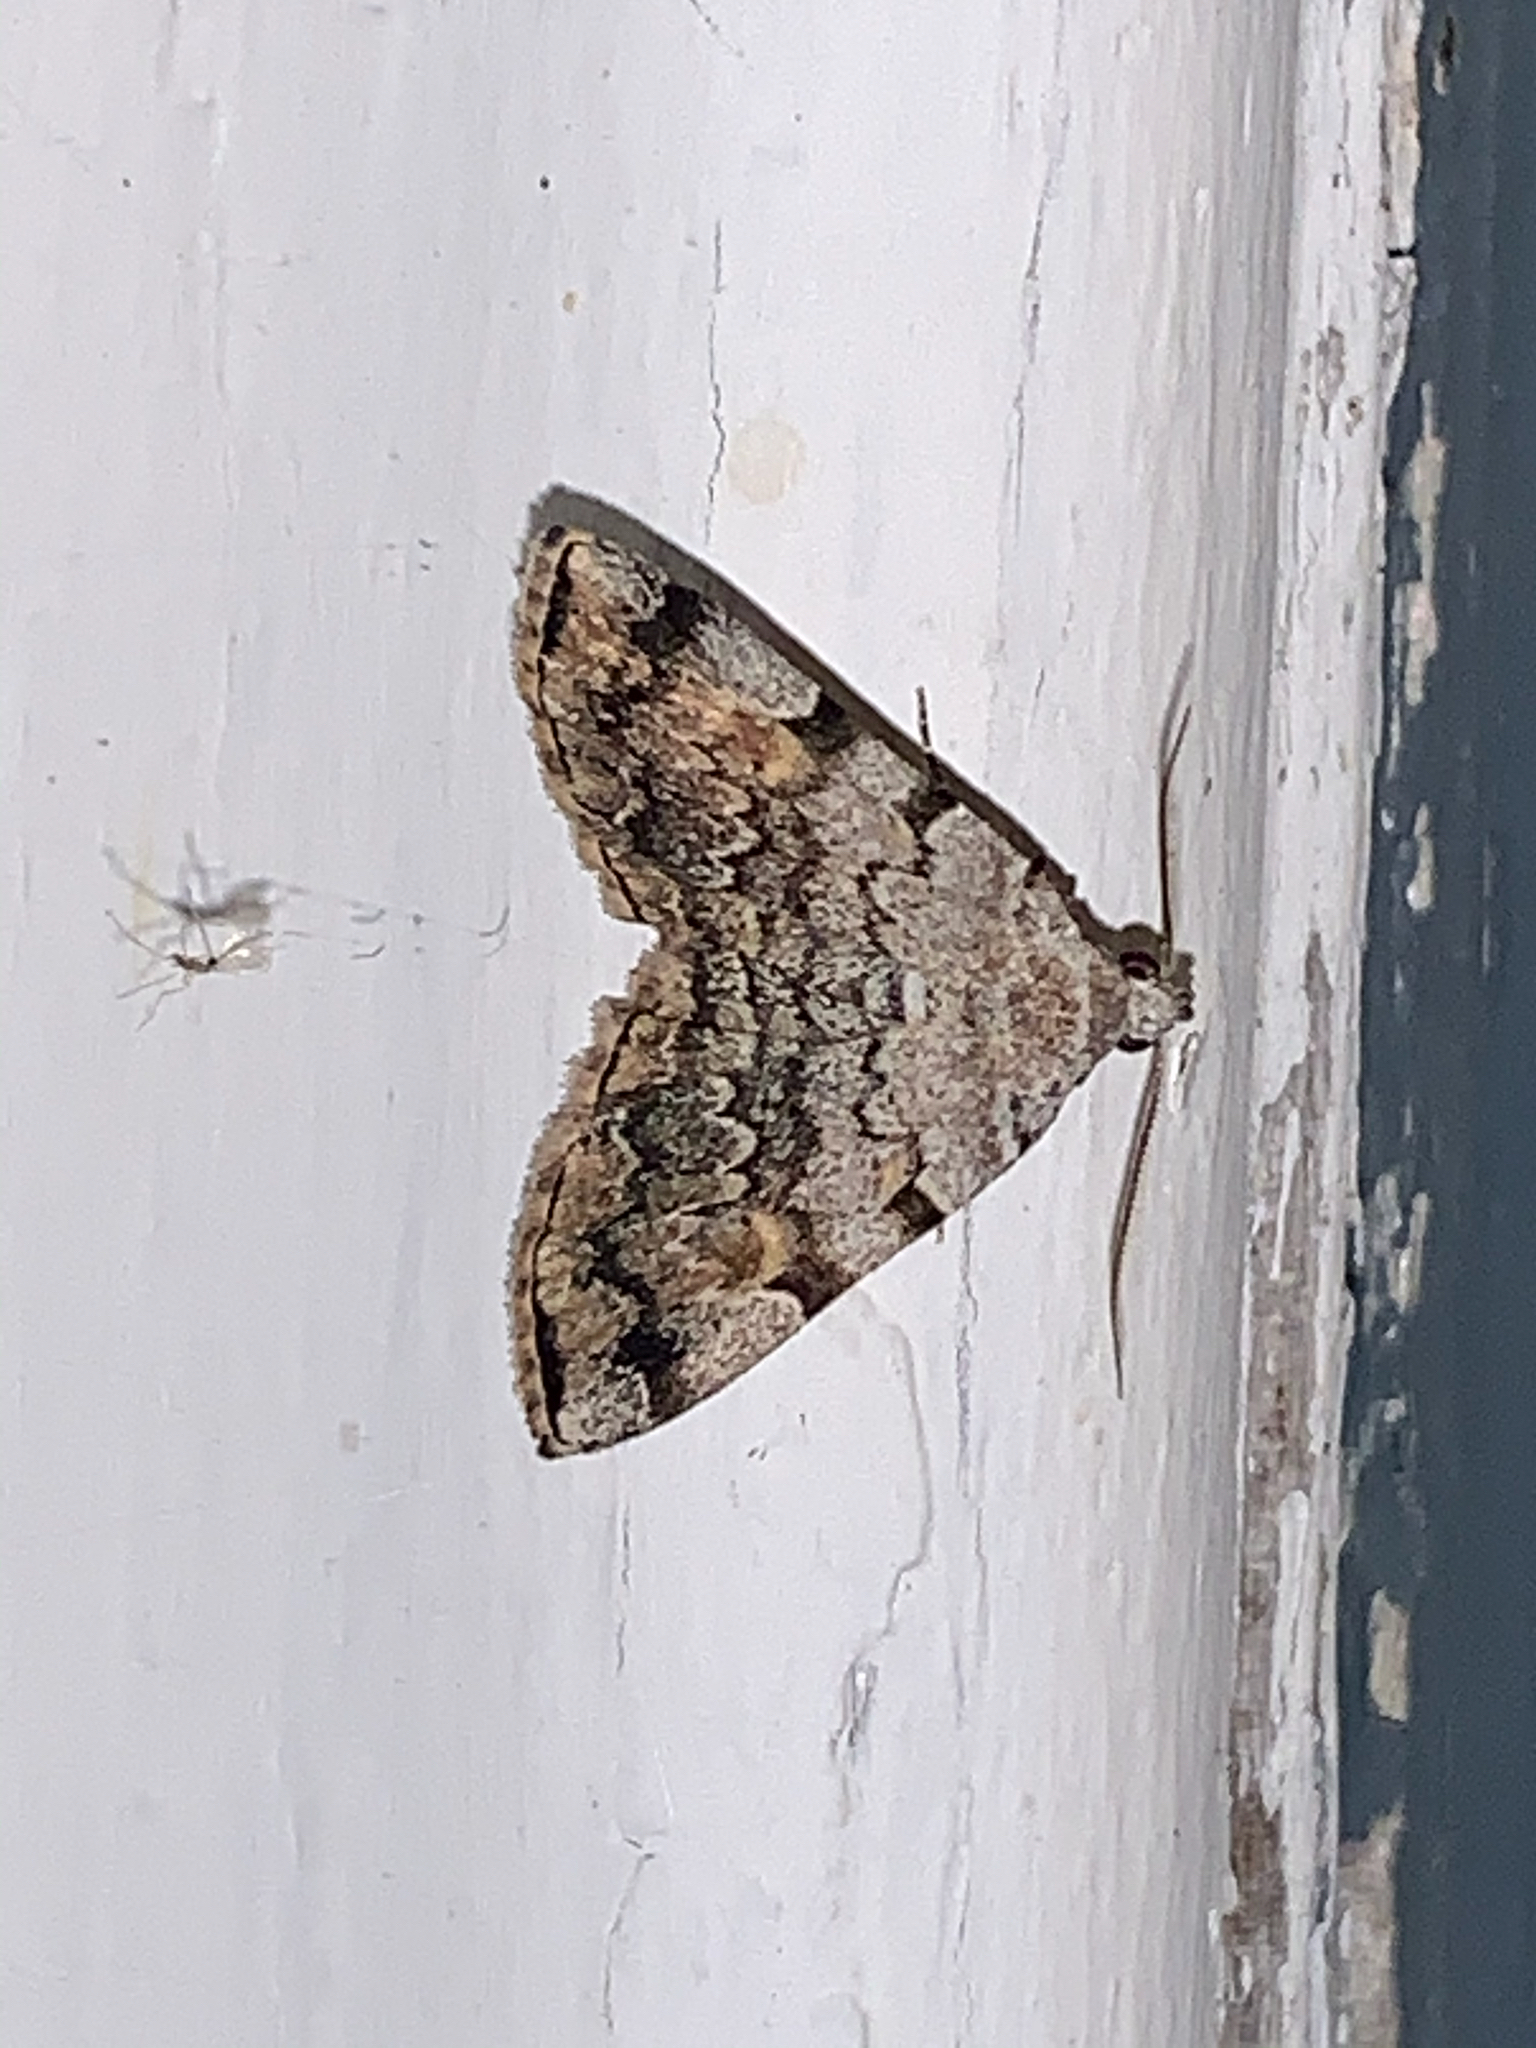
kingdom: Animalia
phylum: Arthropoda
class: Insecta
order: Lepidoptera
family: Erebidae
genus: Idia
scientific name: Idia americalis
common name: American idia moth
